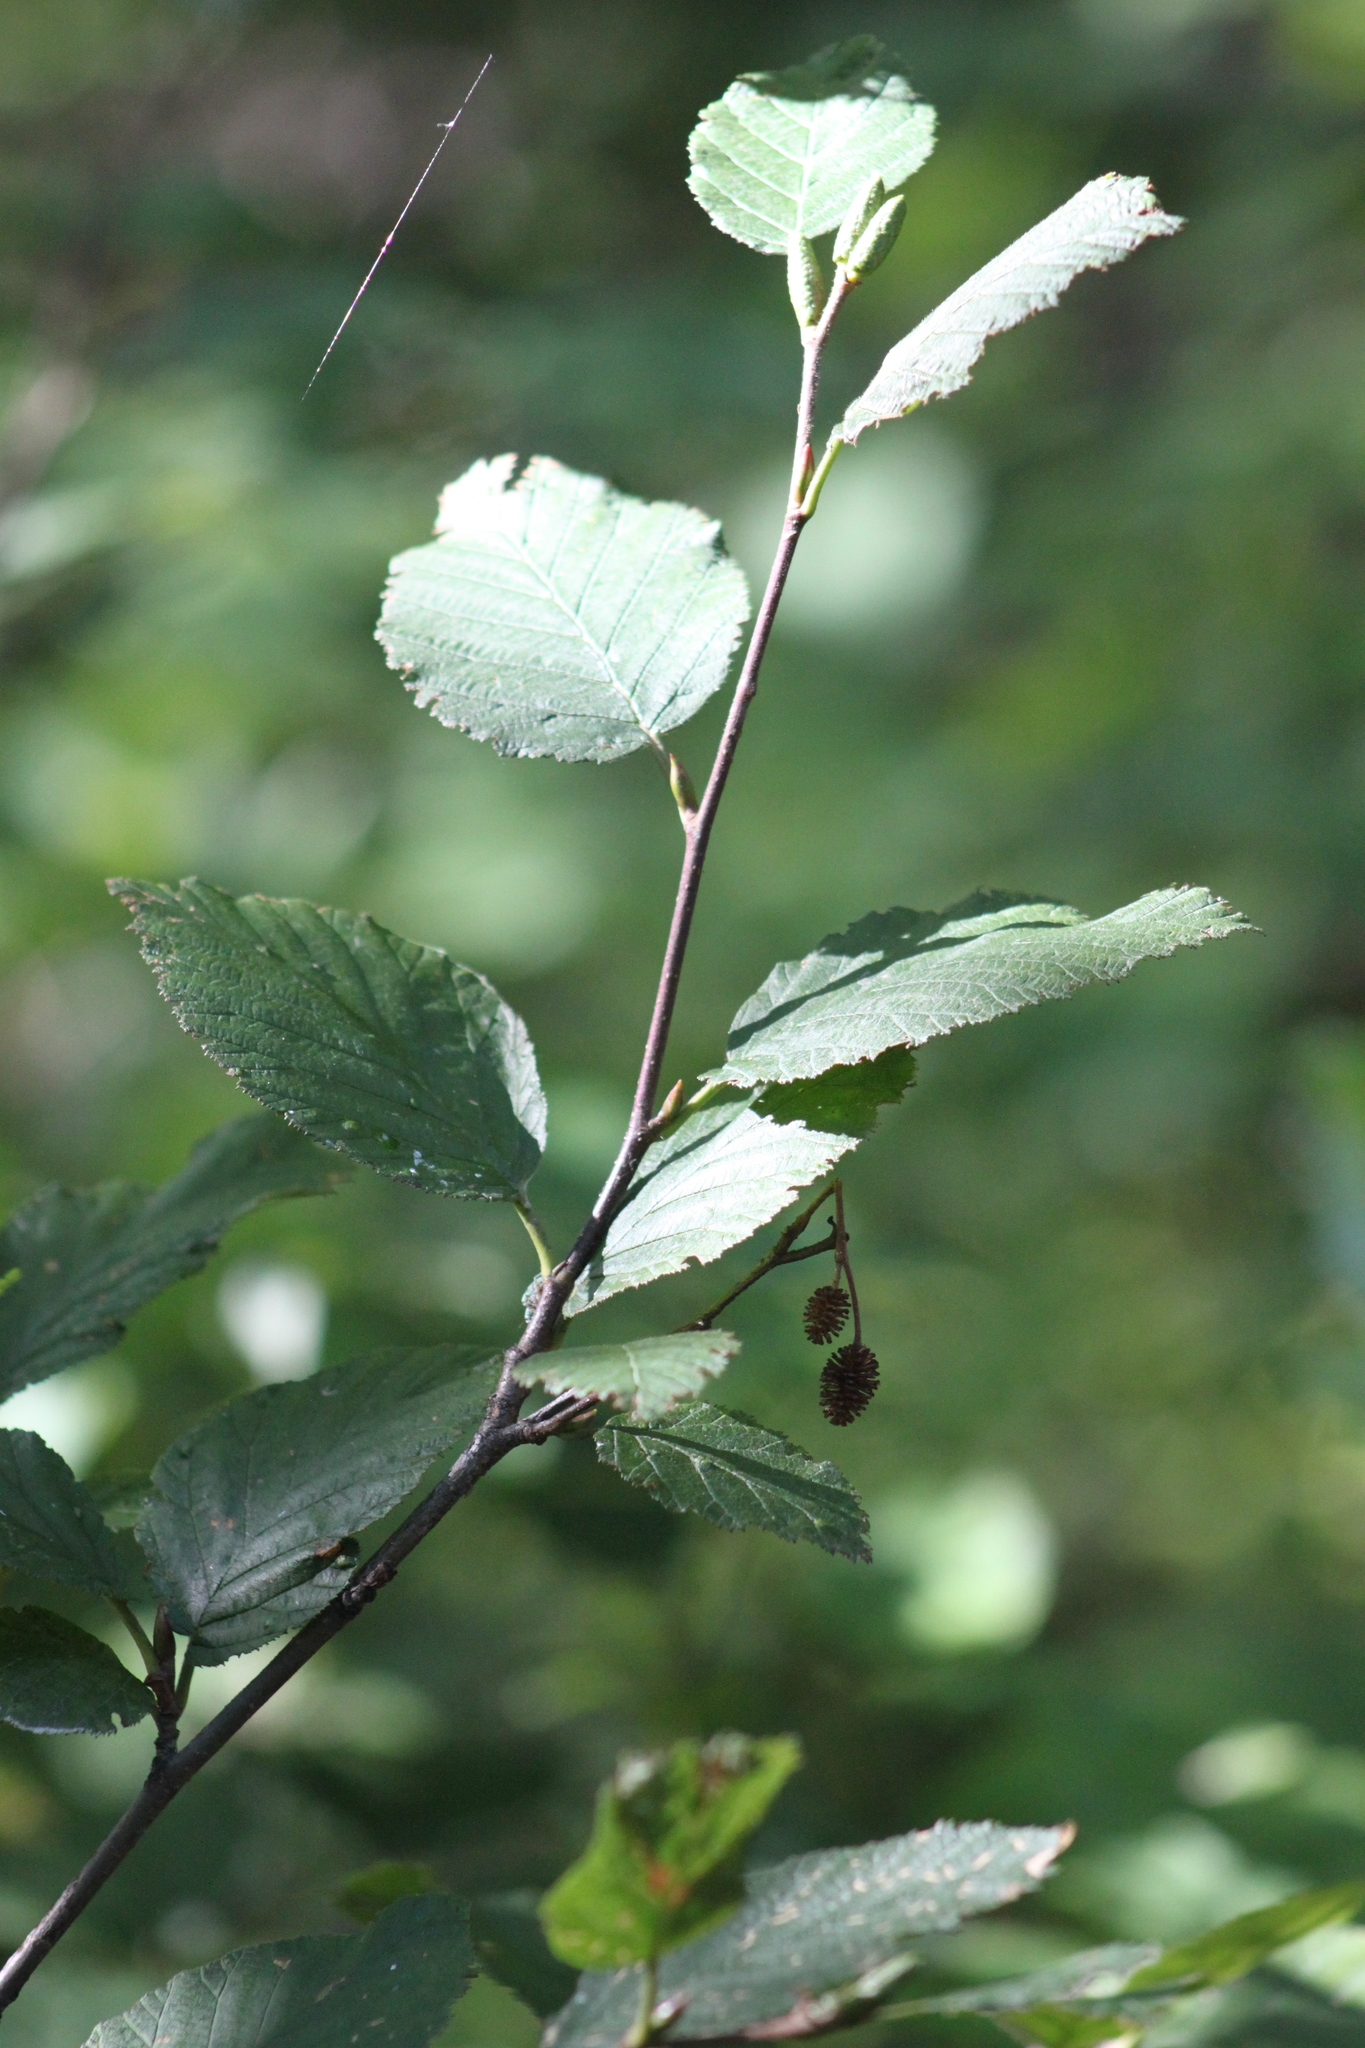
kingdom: Plantae
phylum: Tracheophyta
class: Magnoliopsida
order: Fagales
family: Betulaceae
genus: Alnus
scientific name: Alnus alnobetula
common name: Green alder
